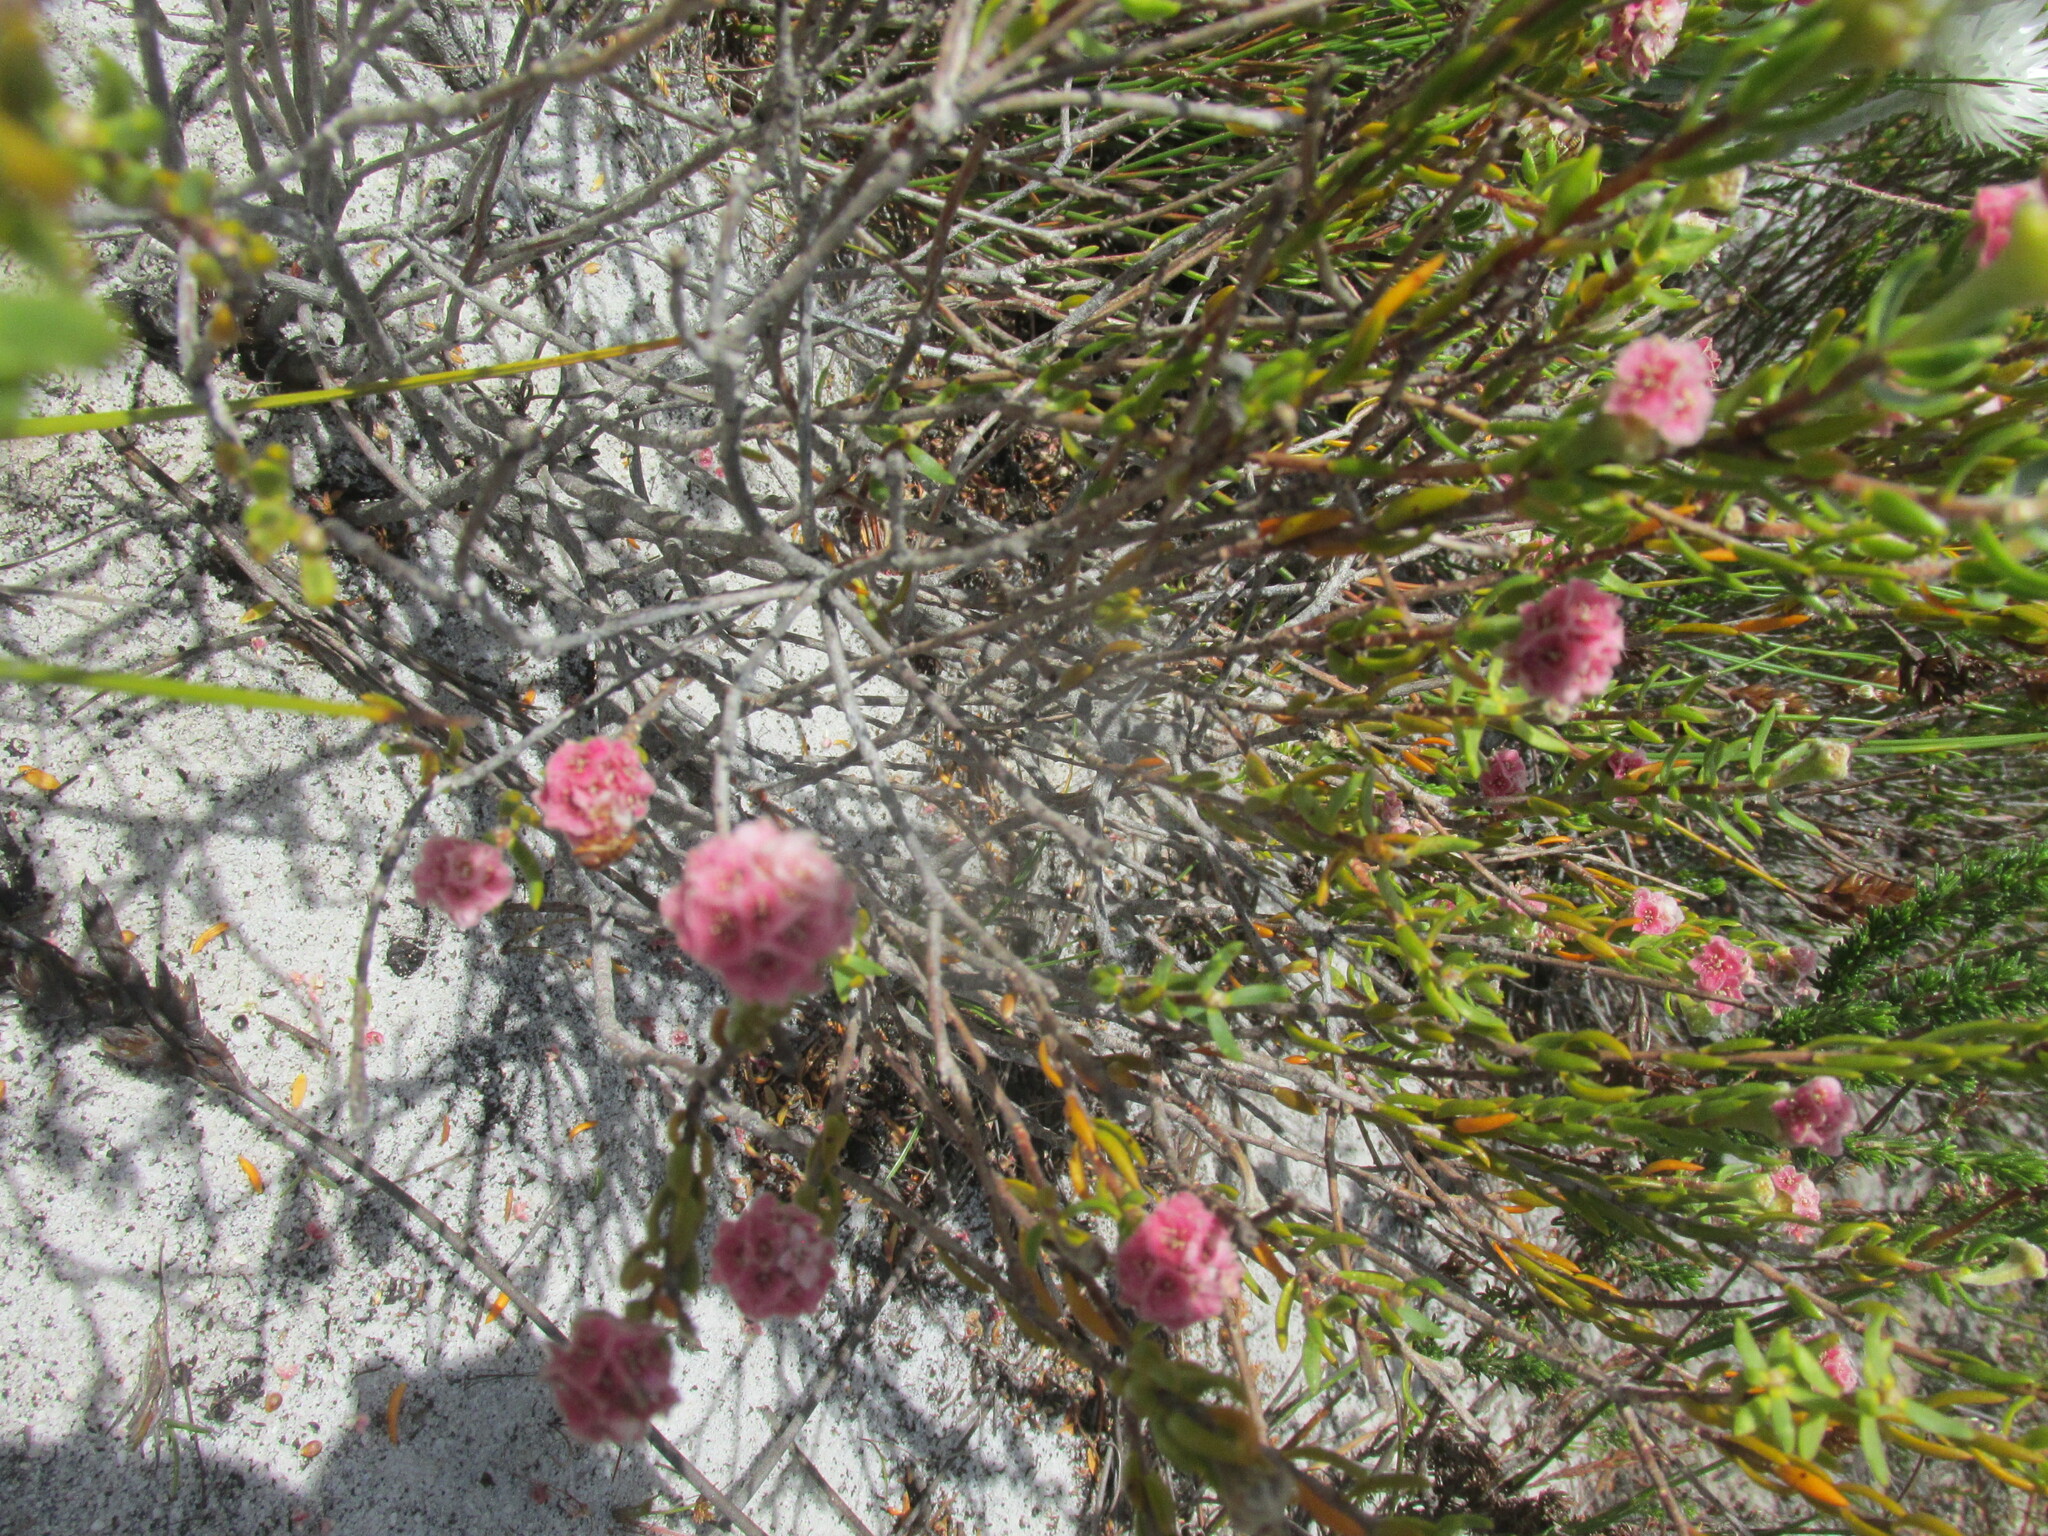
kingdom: Plantae
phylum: Tracheophyta
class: Magnoliopsida
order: Malvales
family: Thymelaeaceae
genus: Lachnaea
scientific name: Lachnaea densiflora
